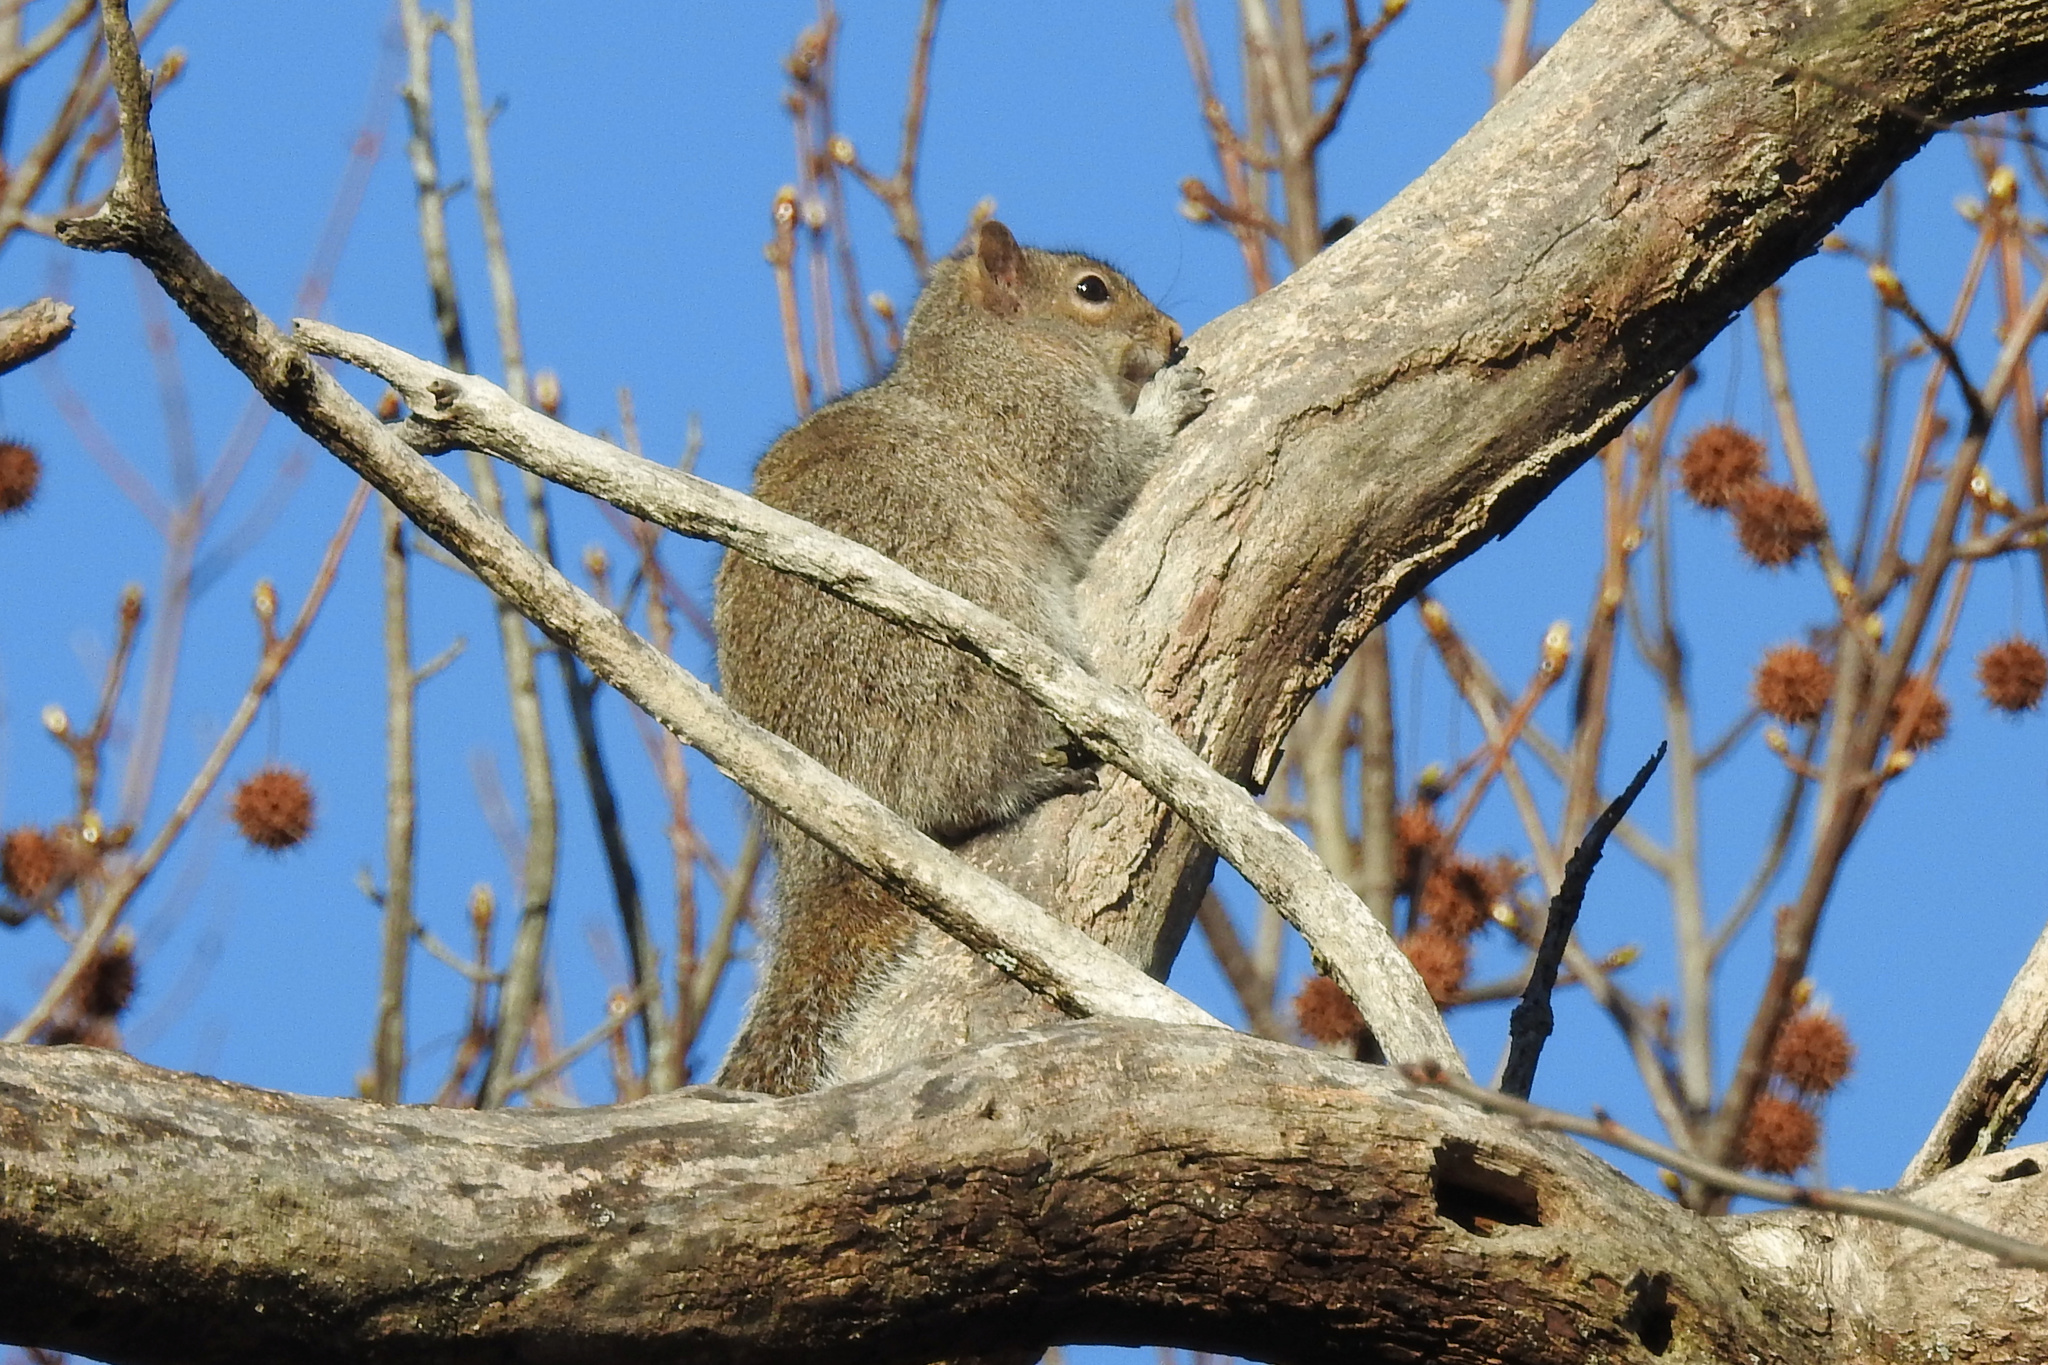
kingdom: Animalia
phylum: Chordata
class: Mammalia
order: Rodentia
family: Sciuridae
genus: Sciurus
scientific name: Sciurus carolinensis
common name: Eastern gray squirrel
